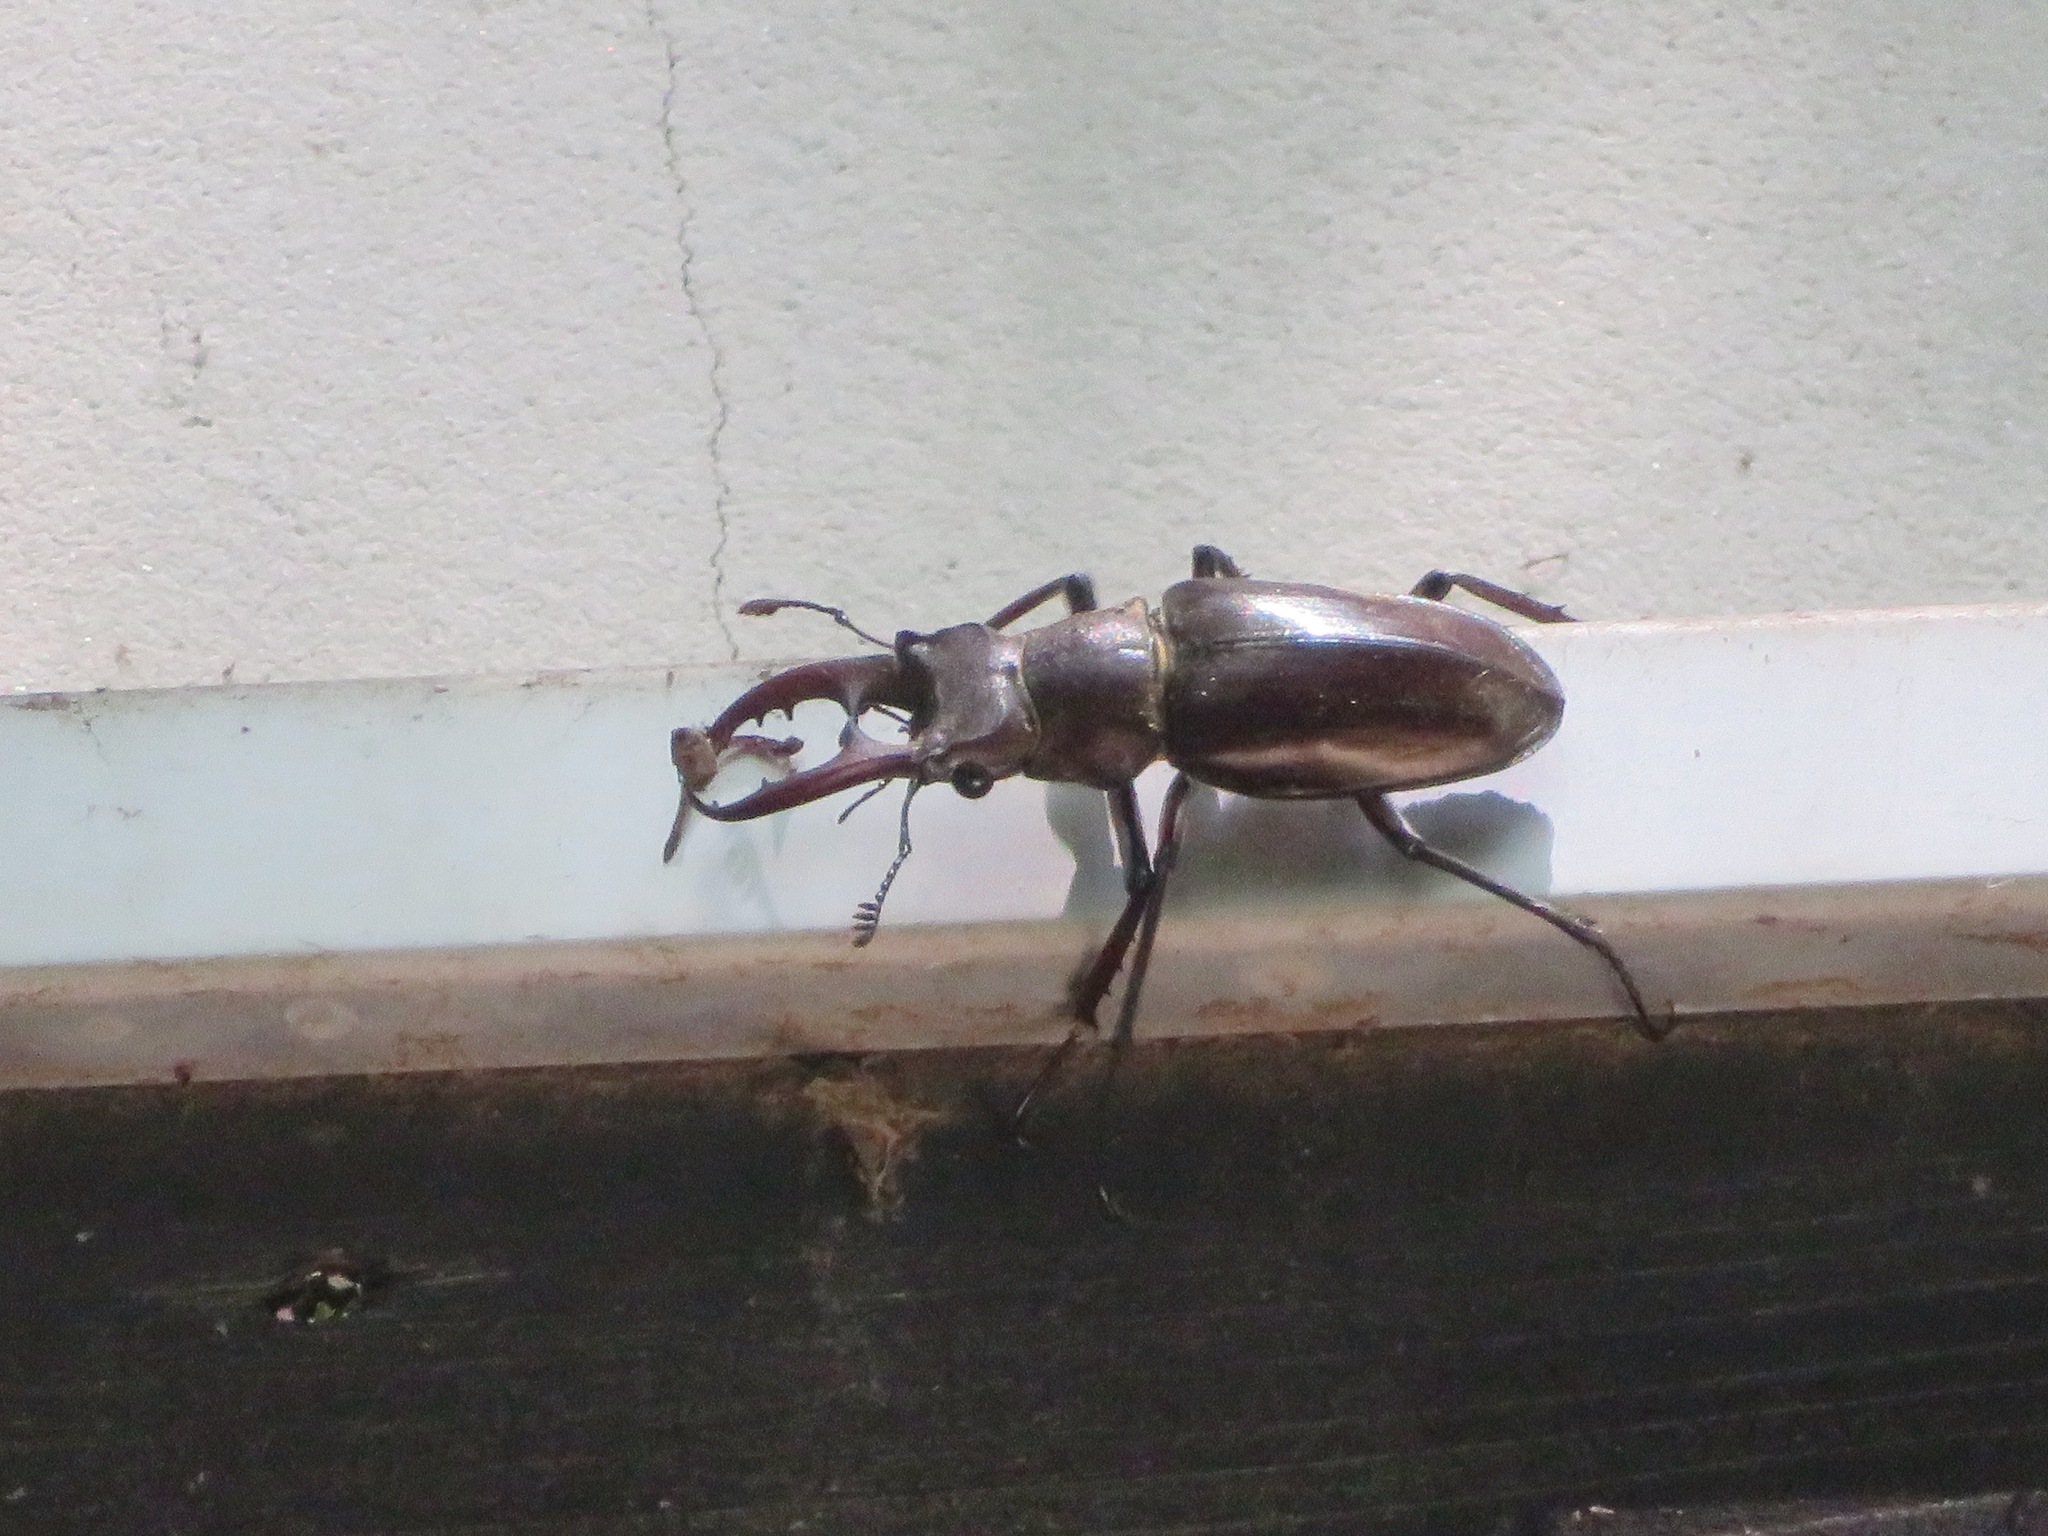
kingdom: Animalia
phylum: Arthropoda
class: Insecta
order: Coleoptera
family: Lucanidae
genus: Lucanus
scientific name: Lucanus maculifemoratus
